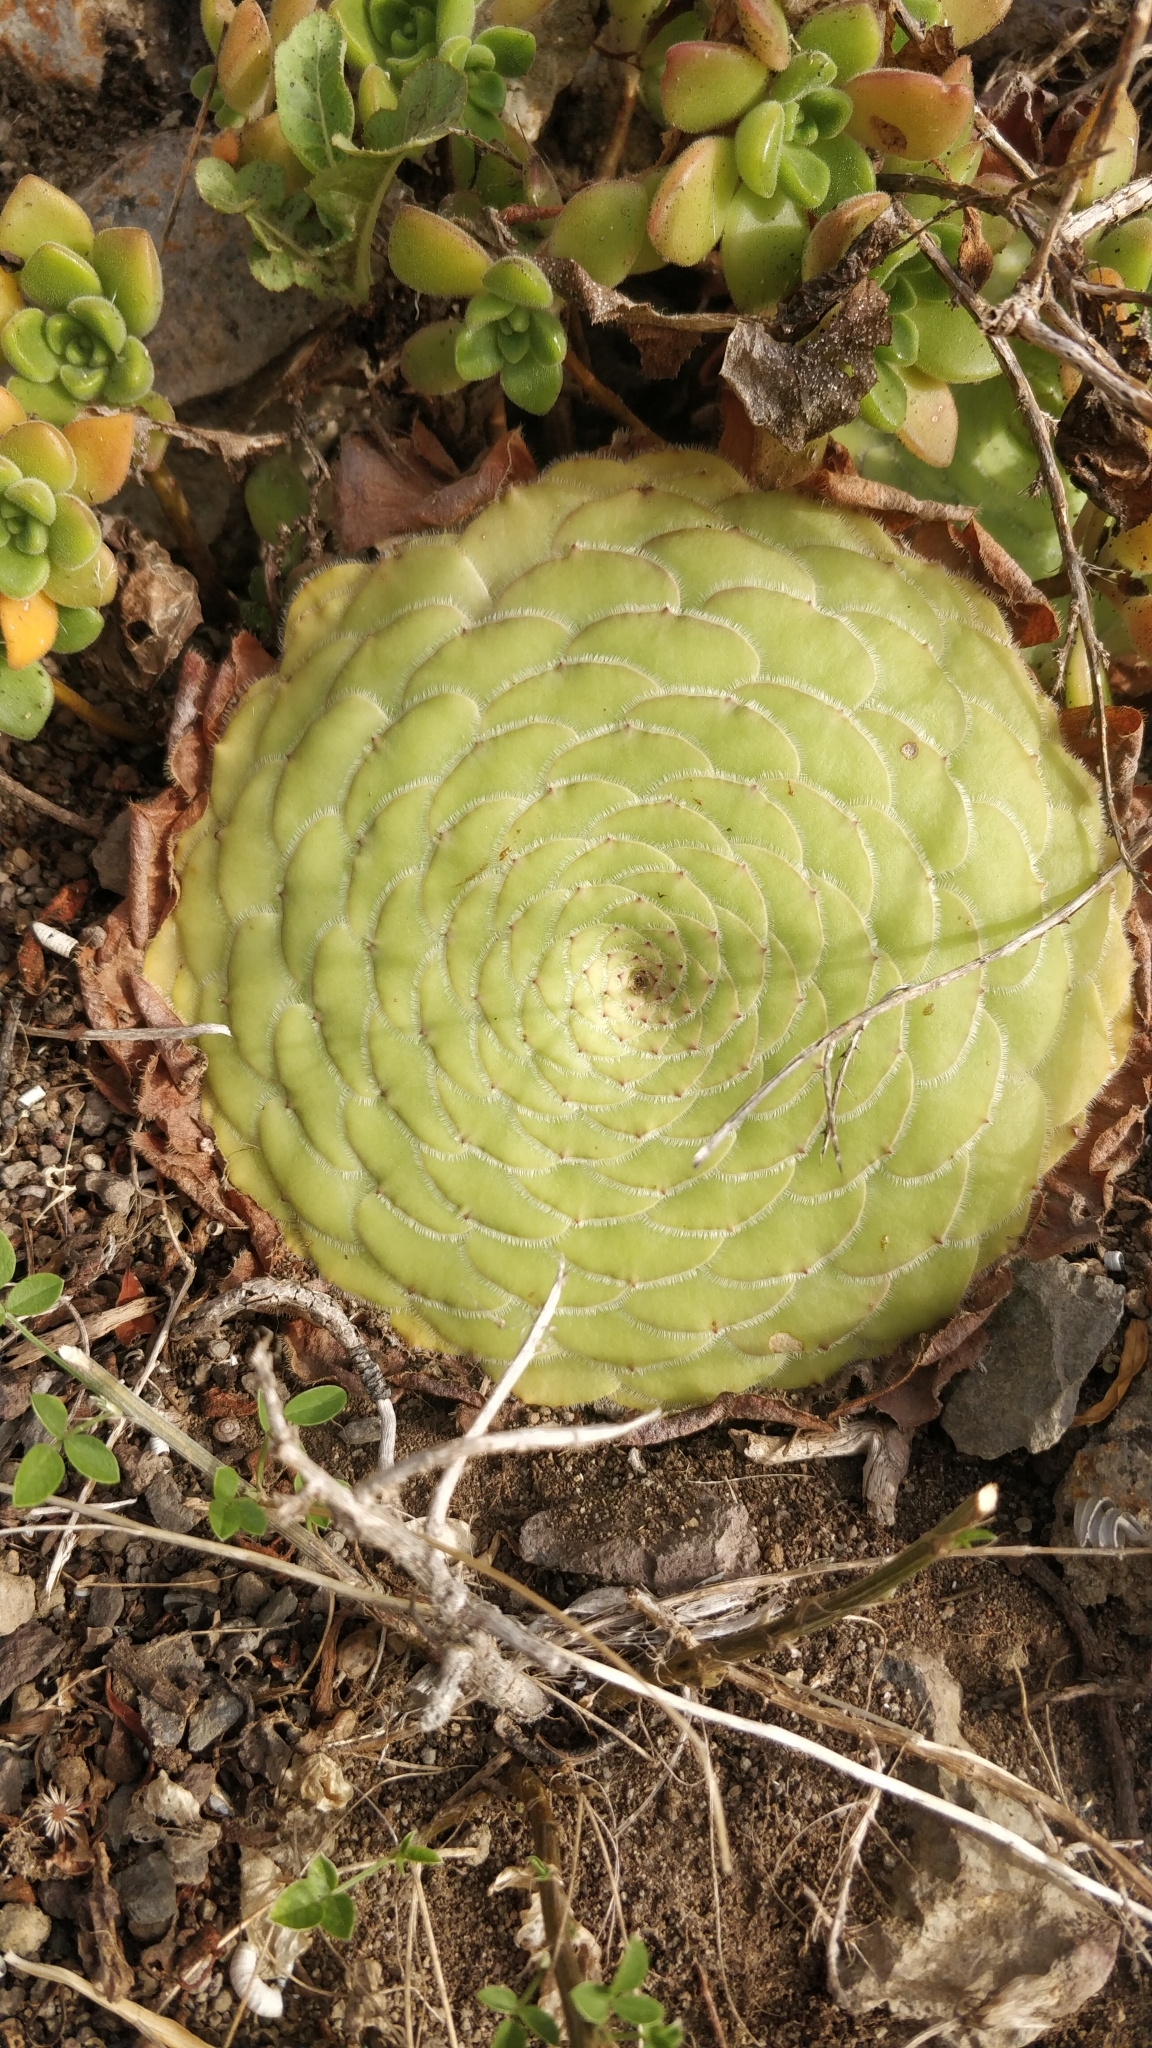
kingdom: Plantae
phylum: Tracheophyta
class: Magnoliopsida
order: Saxifragales
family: Crassulaceae
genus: Aeonium
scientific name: Aeonium tabulaeforme
